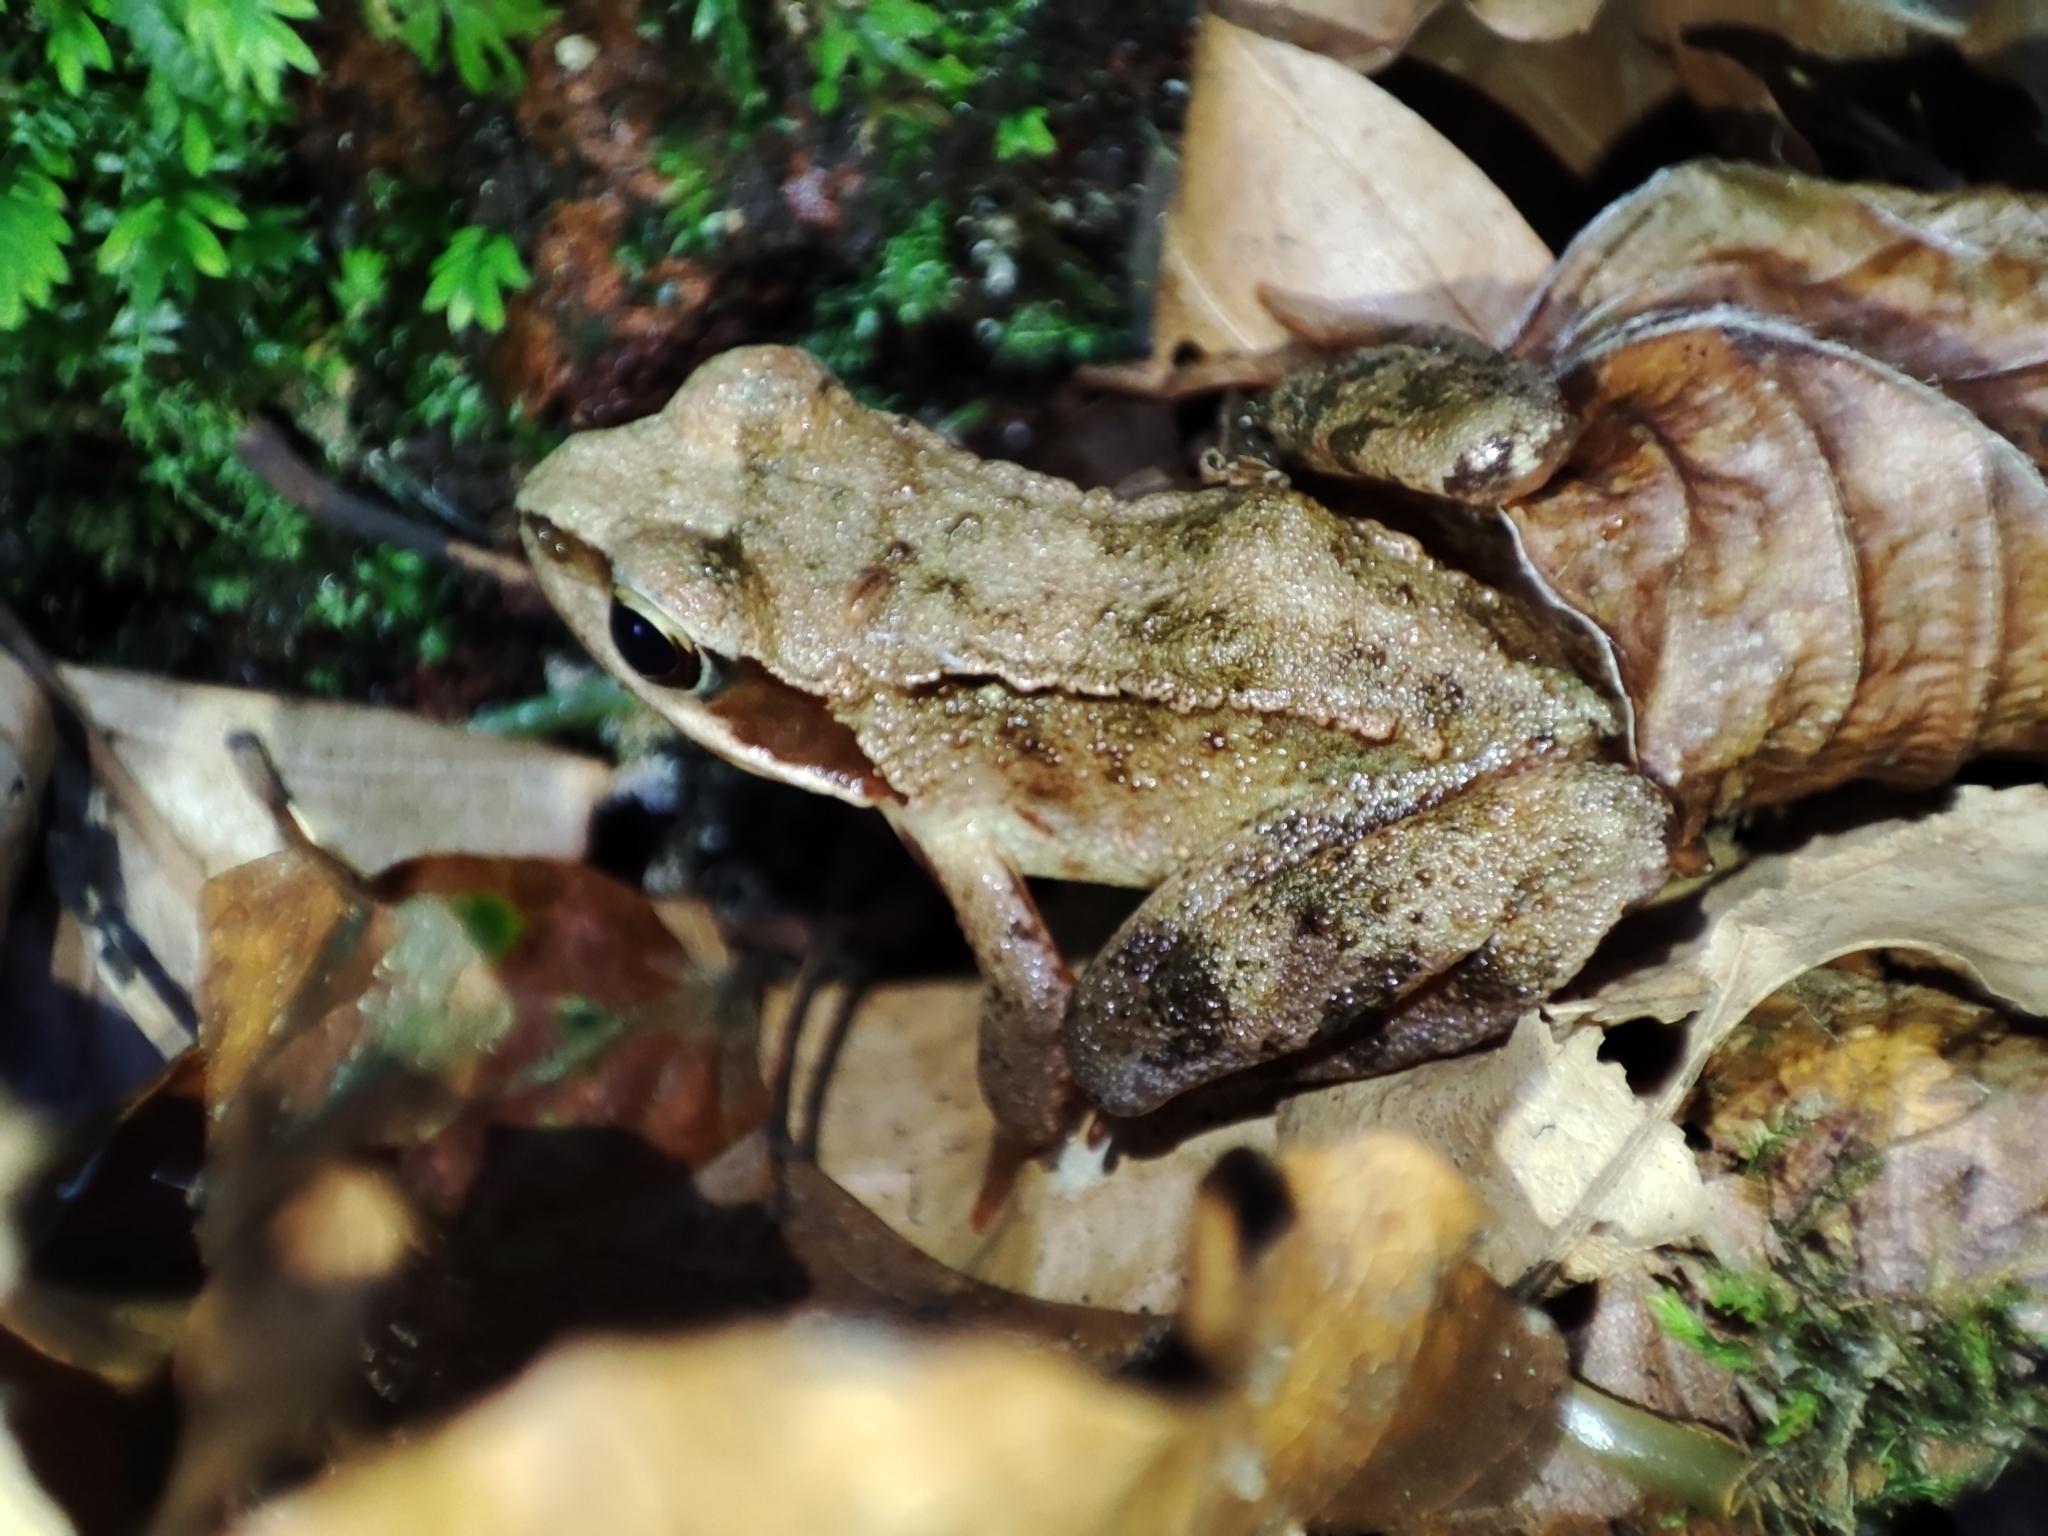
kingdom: Animalia
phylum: Chordata
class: Amphibia
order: Anura
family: Ranidae
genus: Rana
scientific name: Rana temporaria
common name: Common frog
